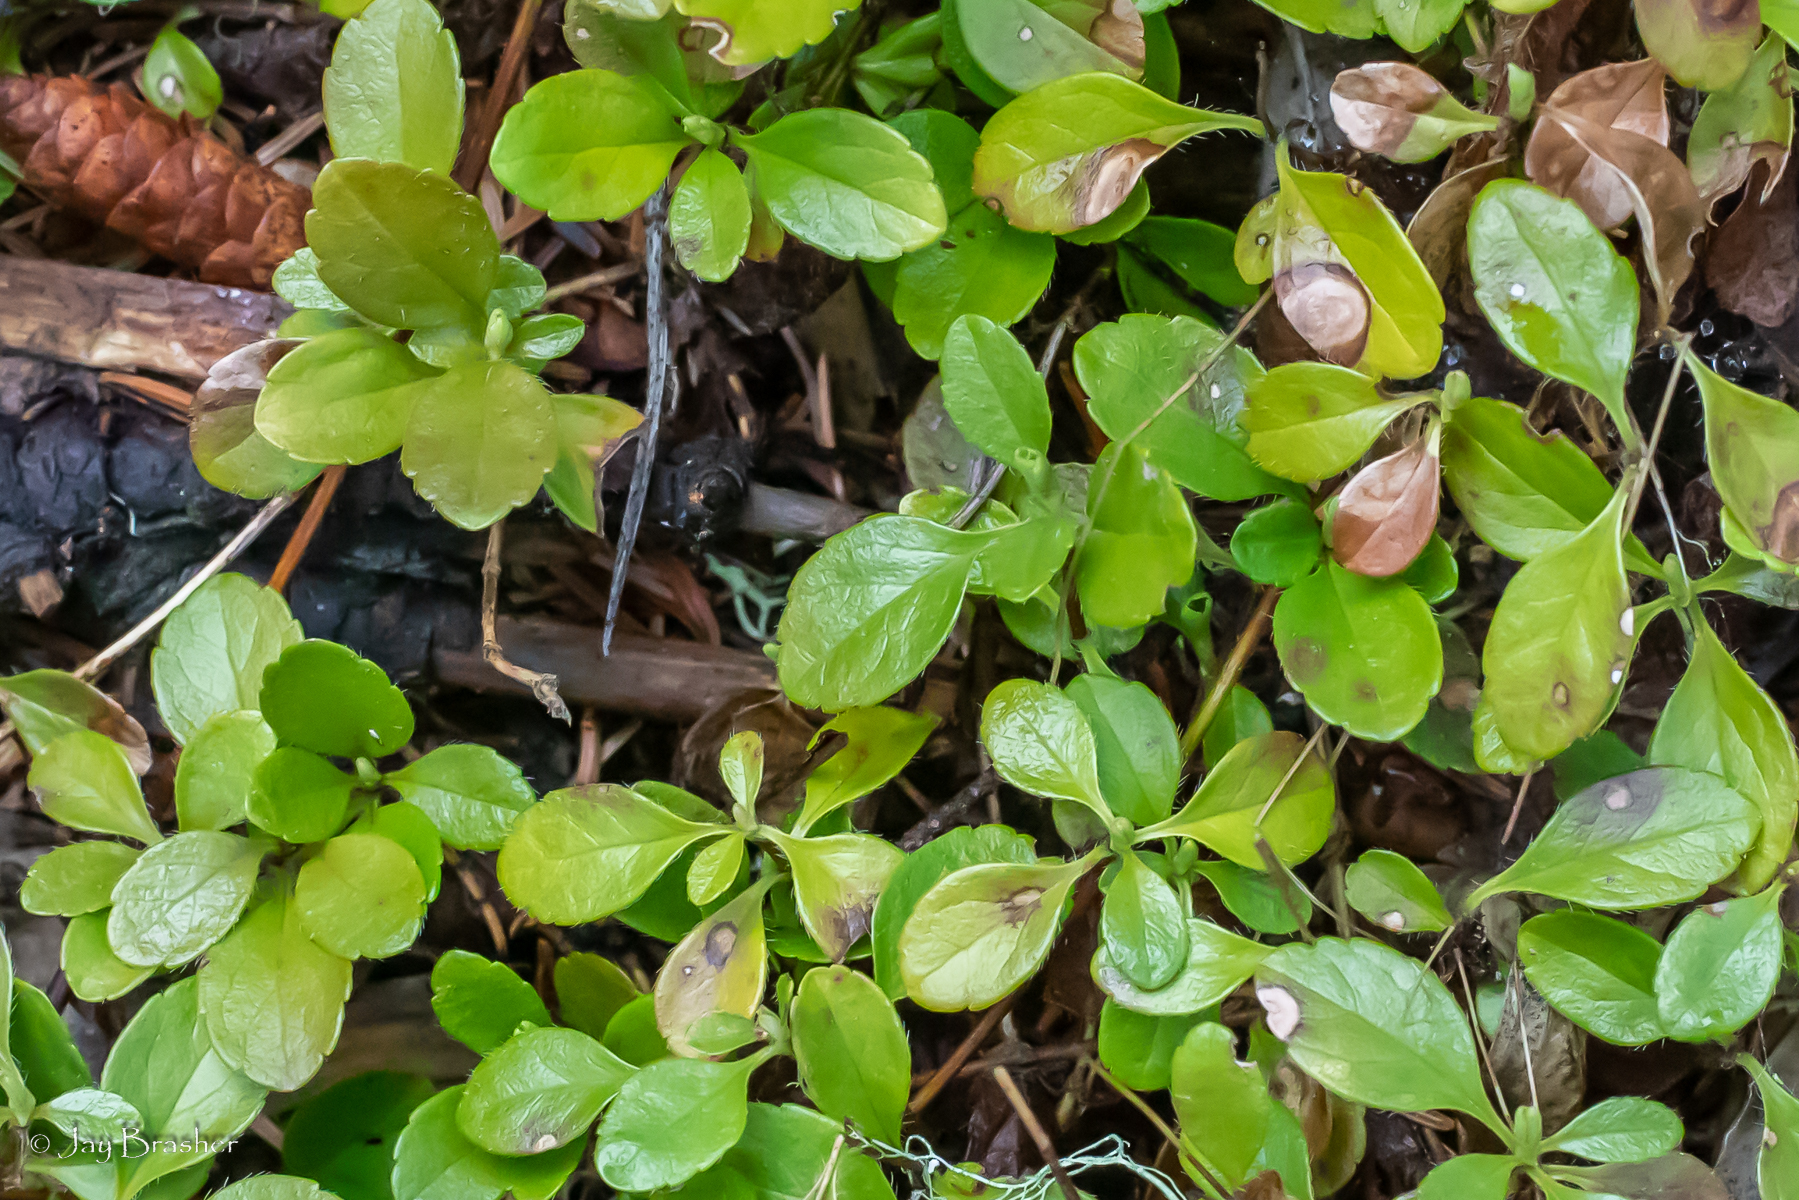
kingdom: Plantae
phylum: Tracheophyta
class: Magnoliopsida
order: Dipsacales
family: Caprifoliaceae
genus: Linnaea
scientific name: Linnaea borealis
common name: Twinflower
